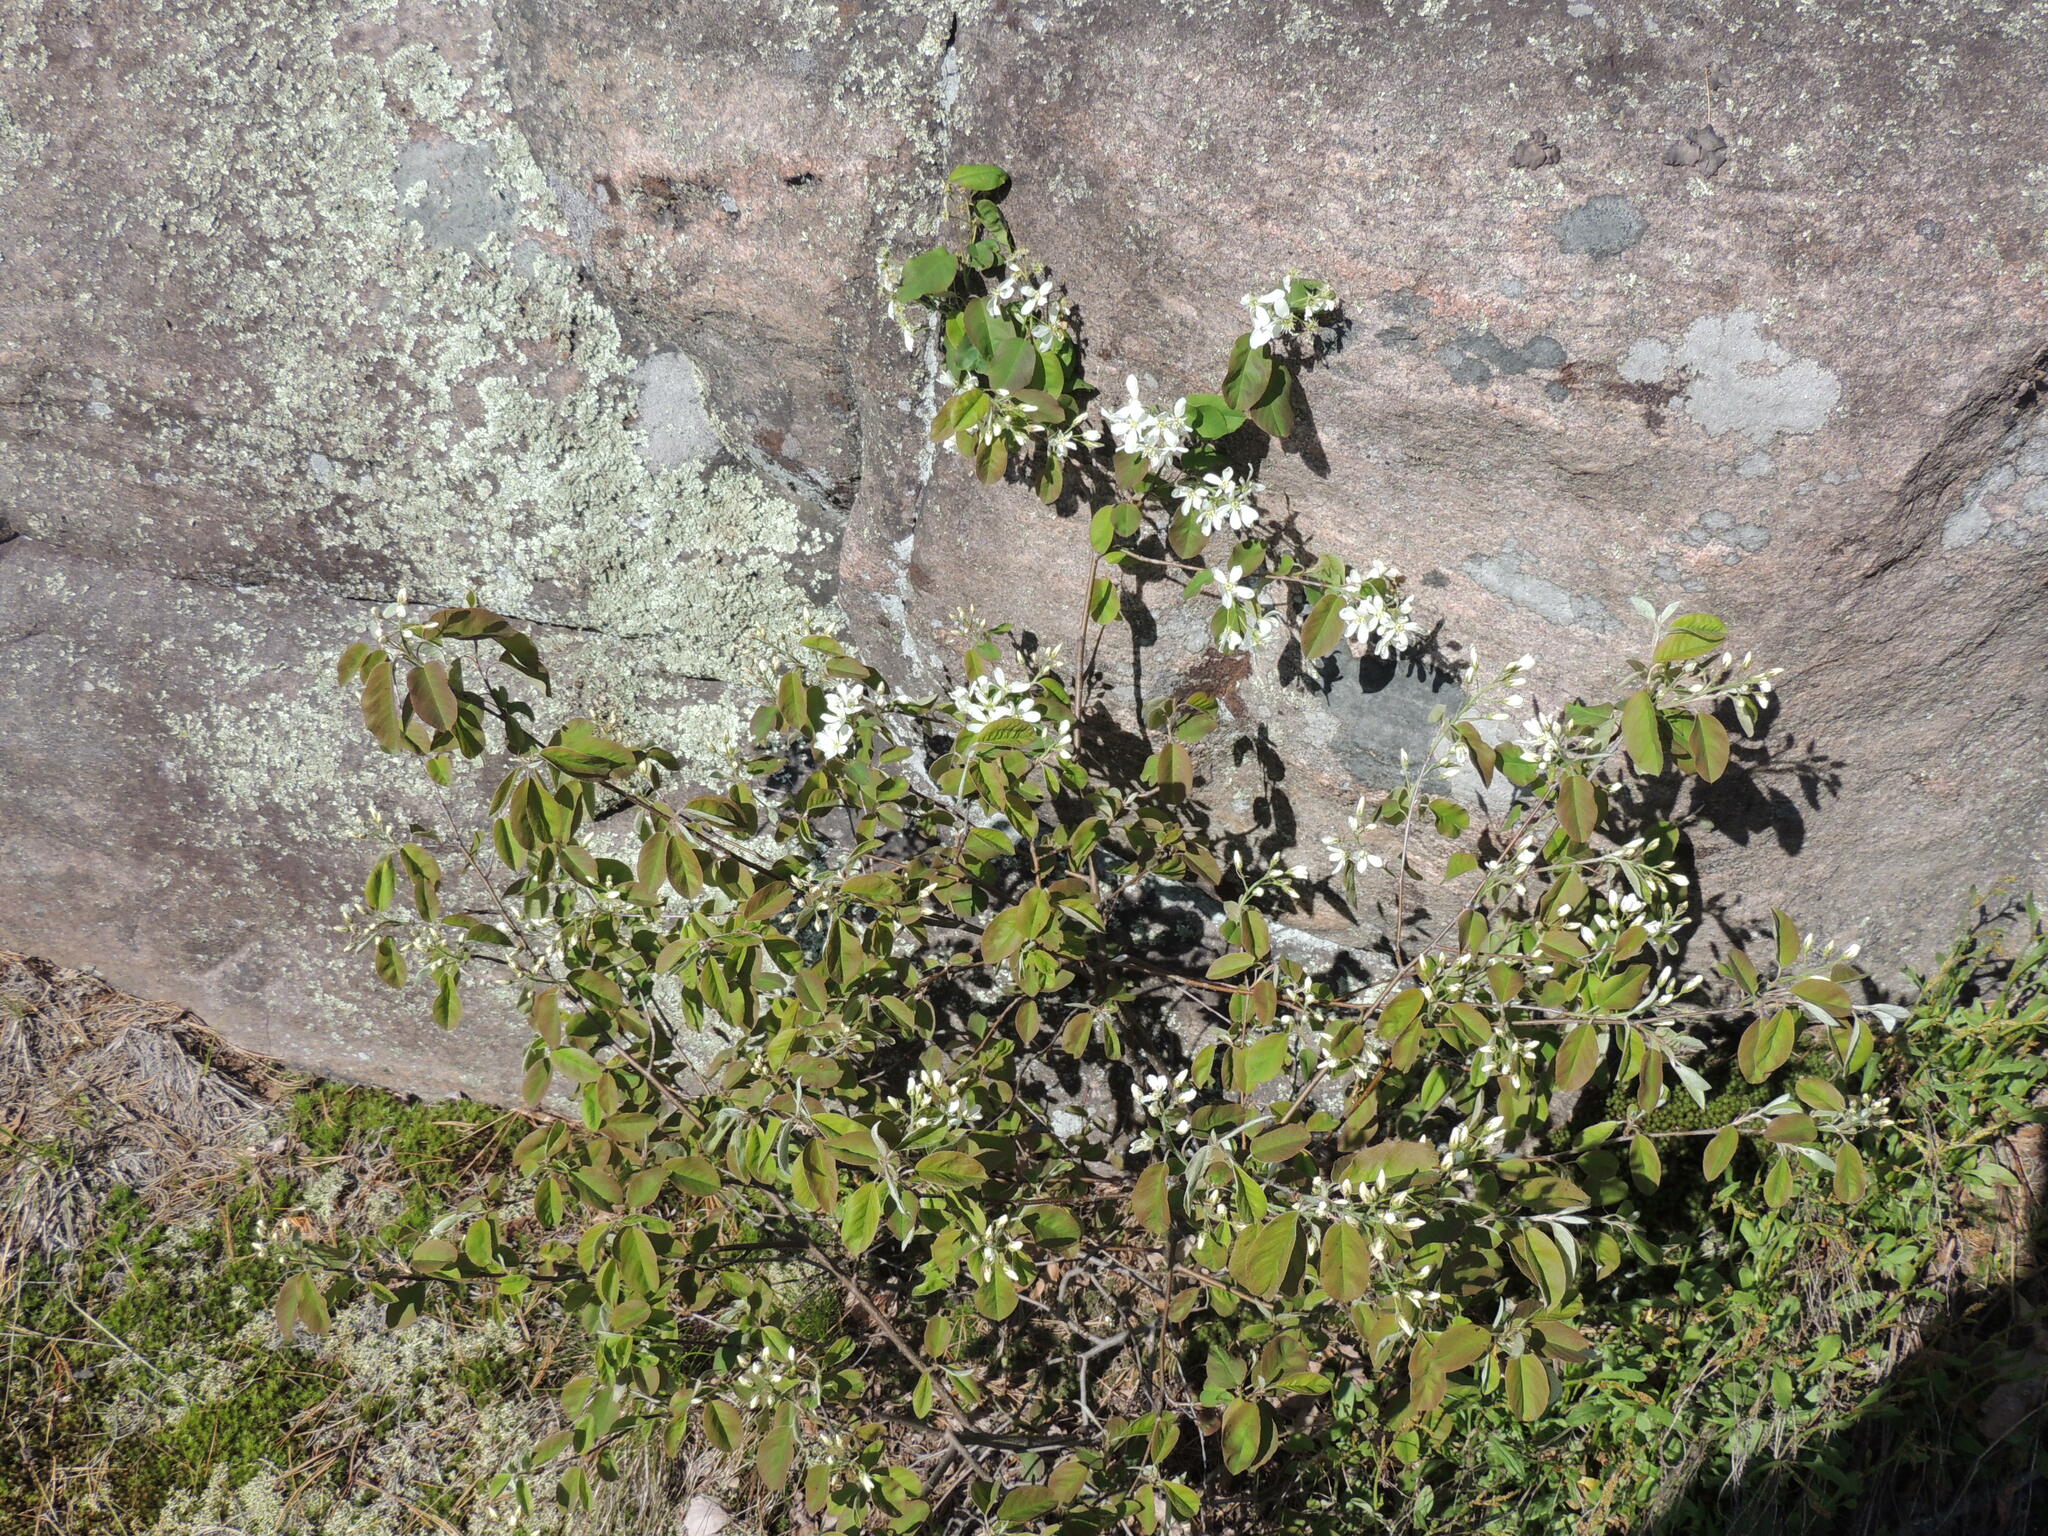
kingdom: Plantae
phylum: Tracheophyta
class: Magnoliopsida
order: Rosales
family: Rosaceae
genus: Amelanchier
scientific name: Amelanchier arborea
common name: Downy serviceberry
